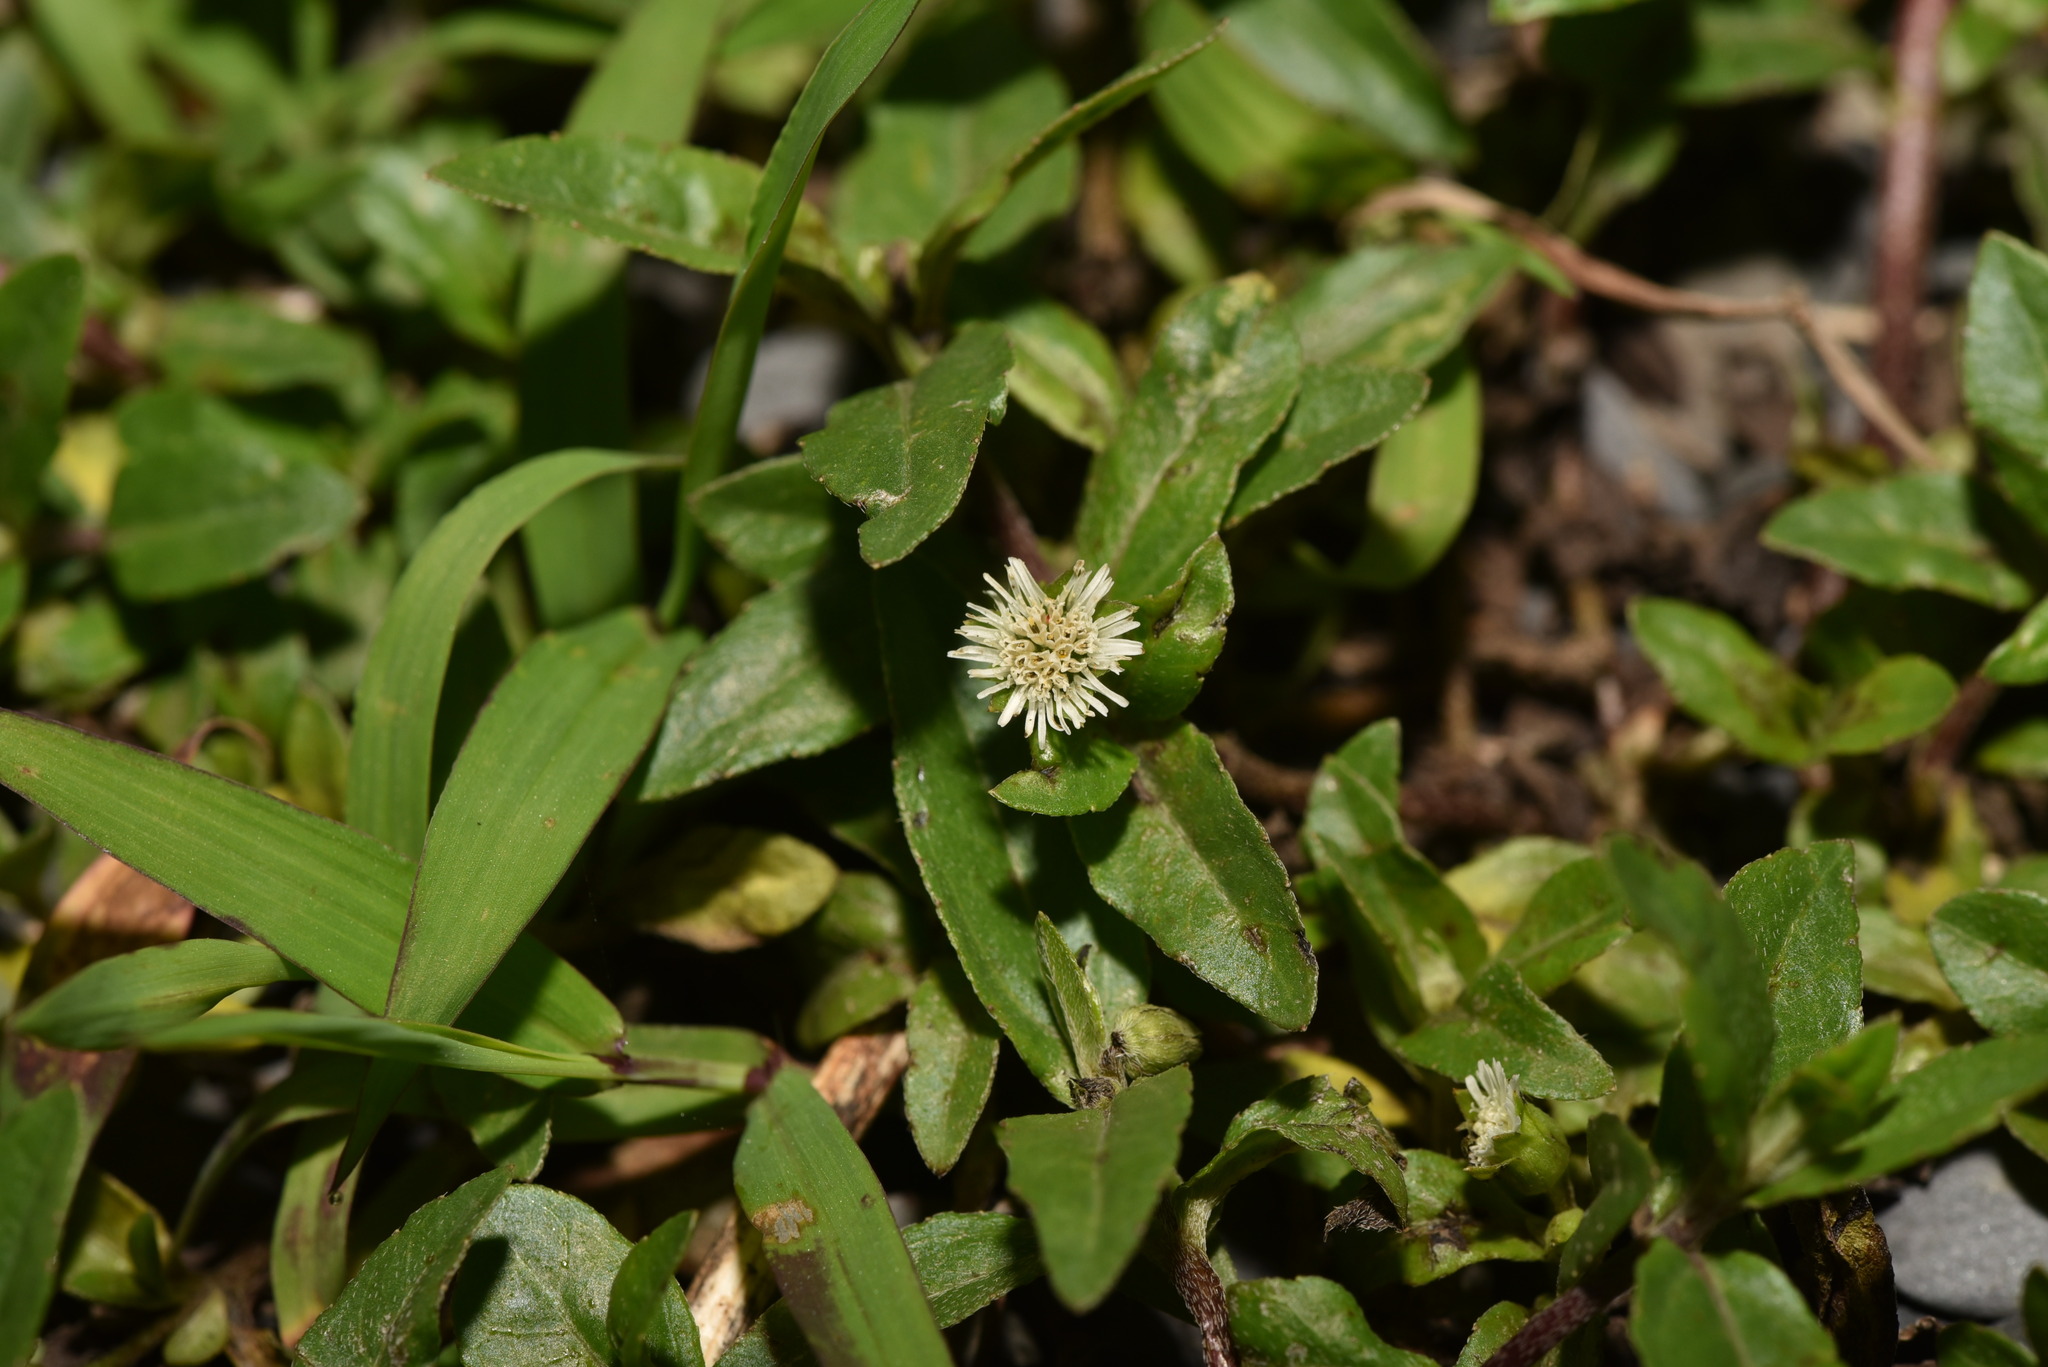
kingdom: Plantae
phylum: Tracheophyta
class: Magnoliopsida
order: Asterales
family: Asteraceae
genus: Eclipta
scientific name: Eclipta prostrata
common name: False daisy
